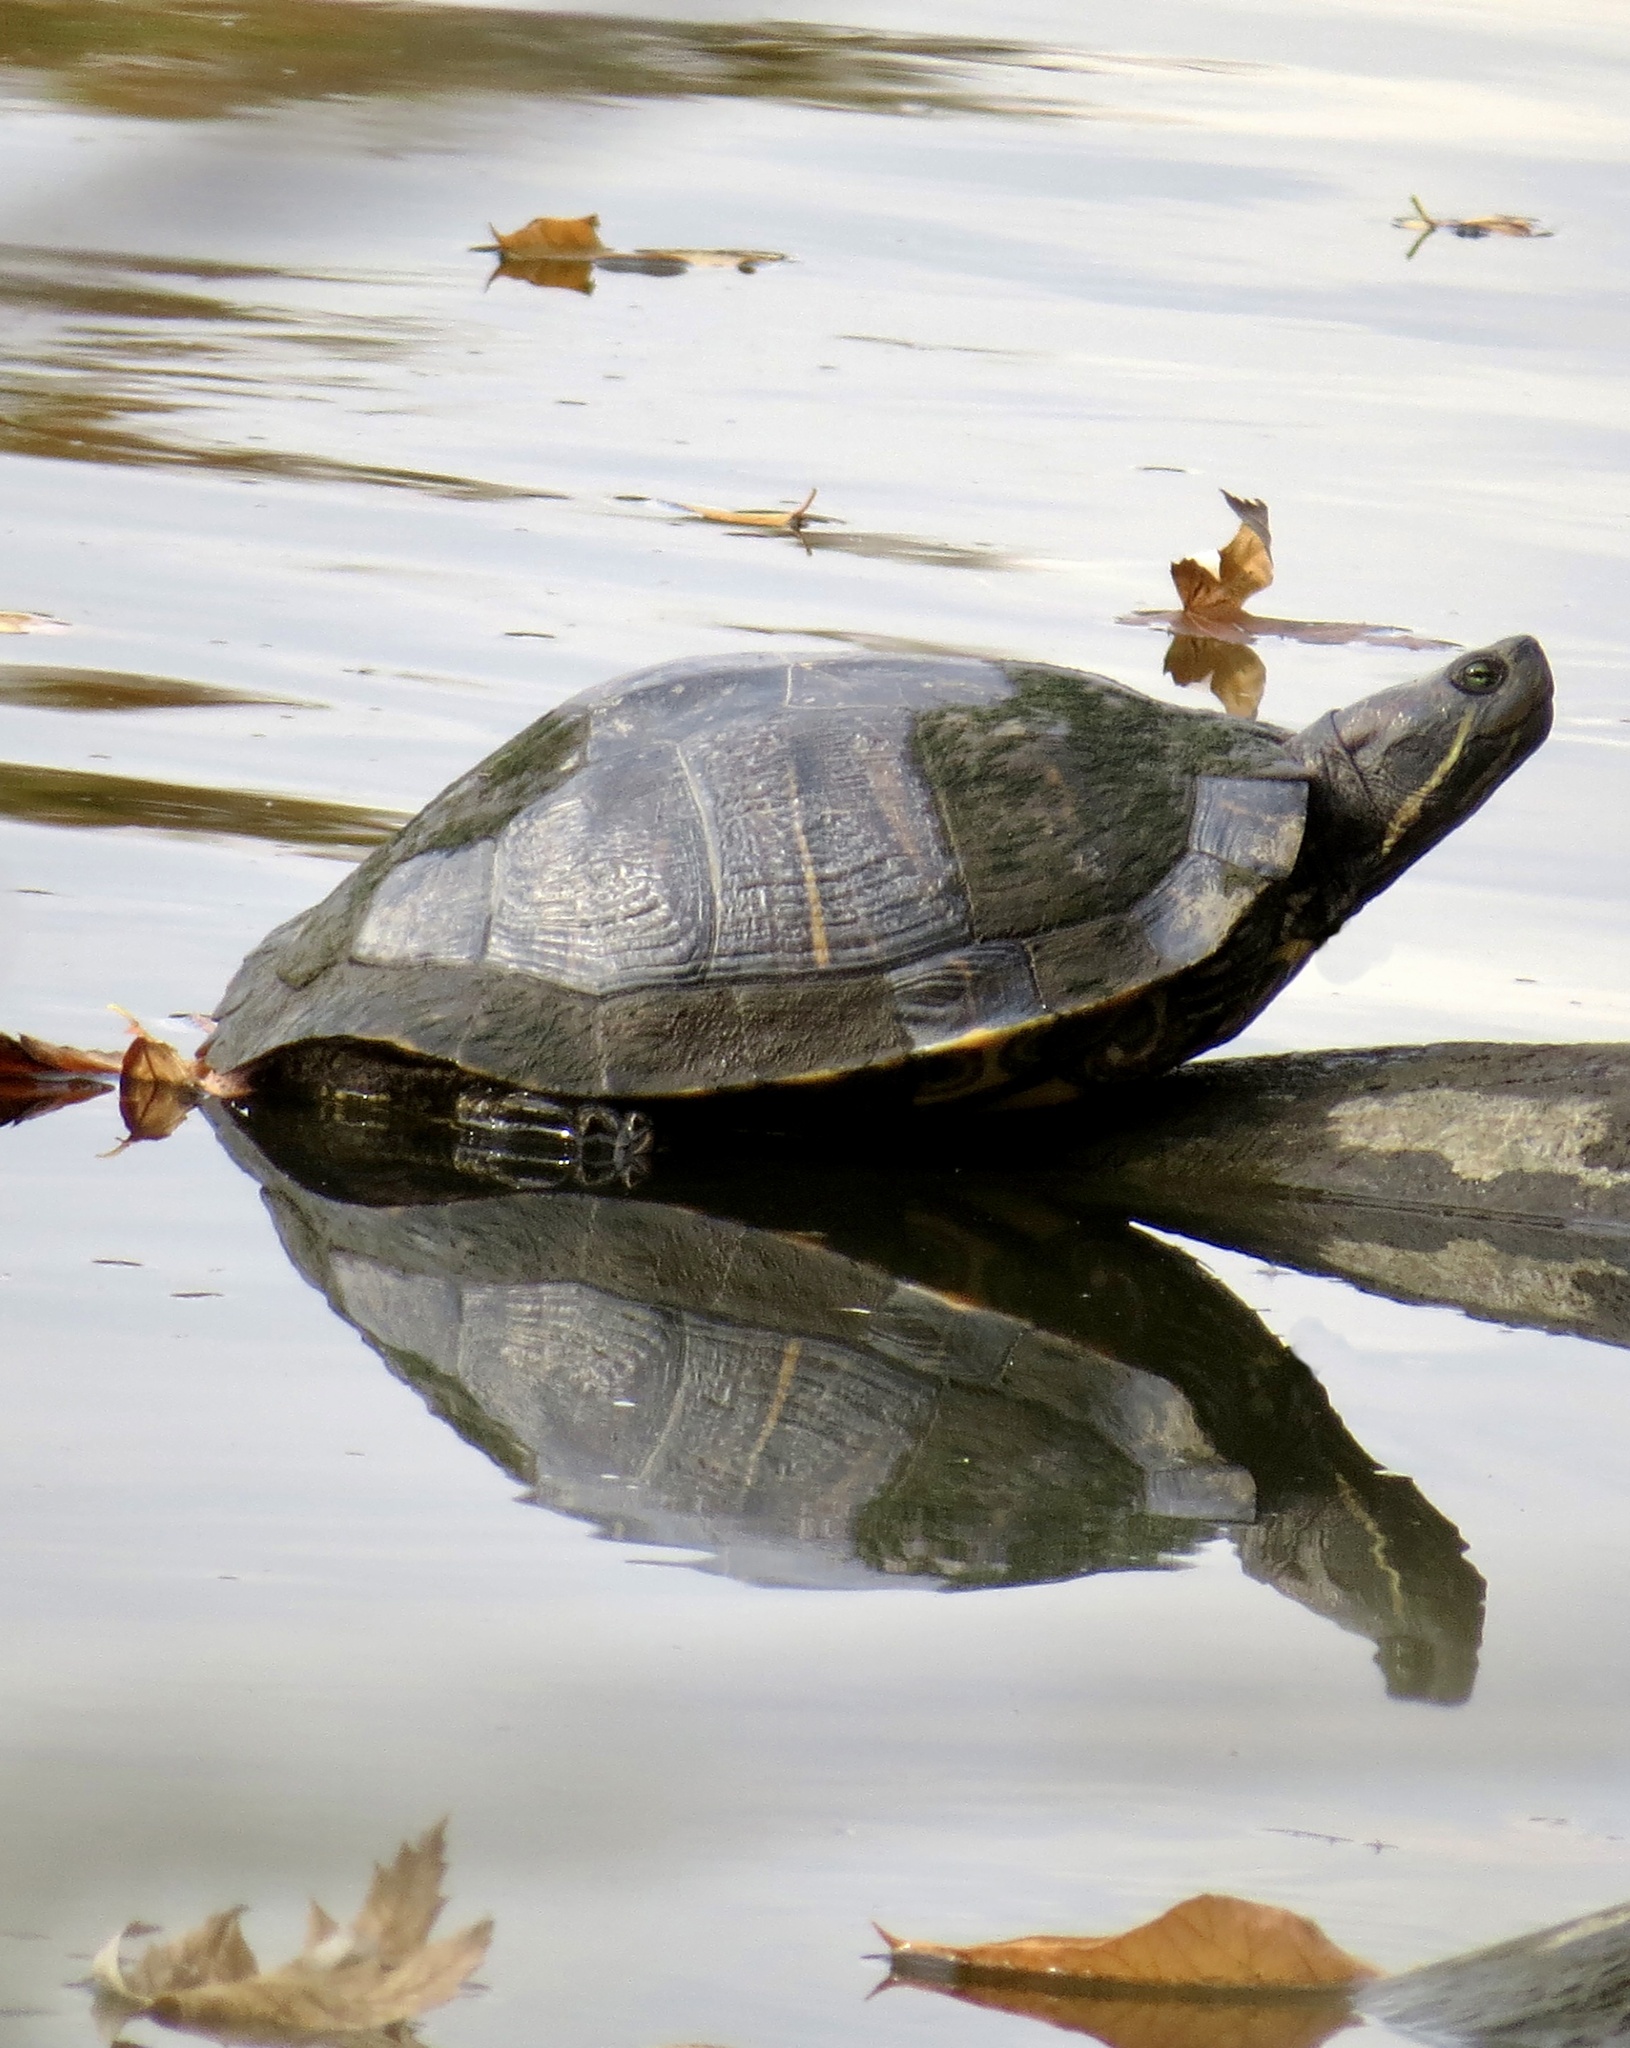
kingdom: Animalia
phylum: Chordata
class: Testudines
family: Emydidae
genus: Trachemys
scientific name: Trachemys scripta
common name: Slider
